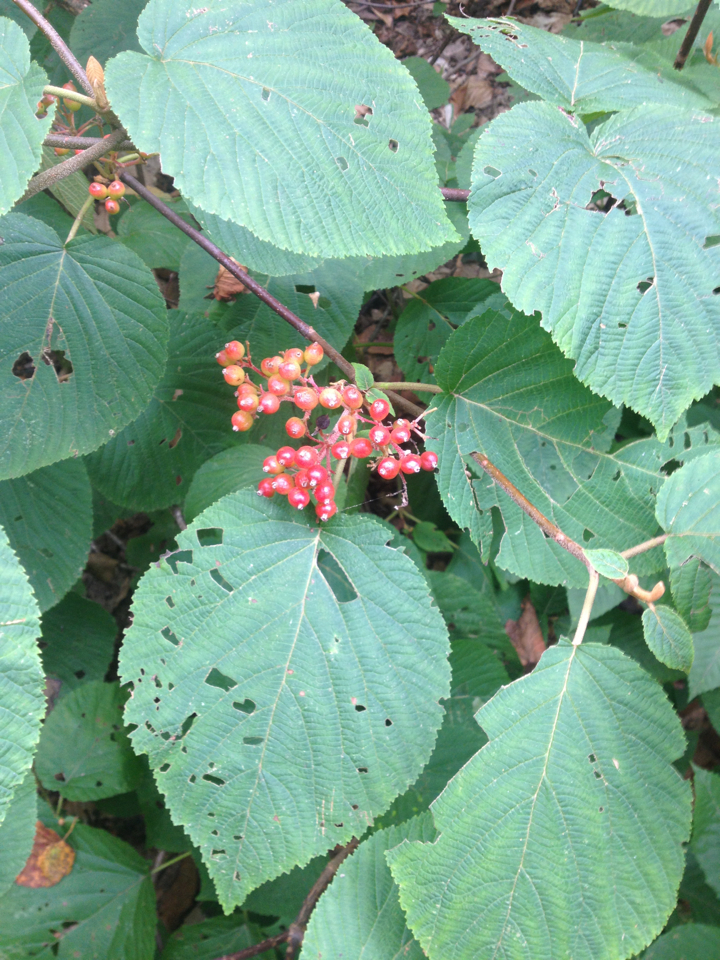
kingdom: Plantae
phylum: Tracheophyta
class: Magnoliopsida
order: Dipsacales
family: Viburnaceae
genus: Viburnum
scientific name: Viburnum lantanoides
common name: Hobblebush
